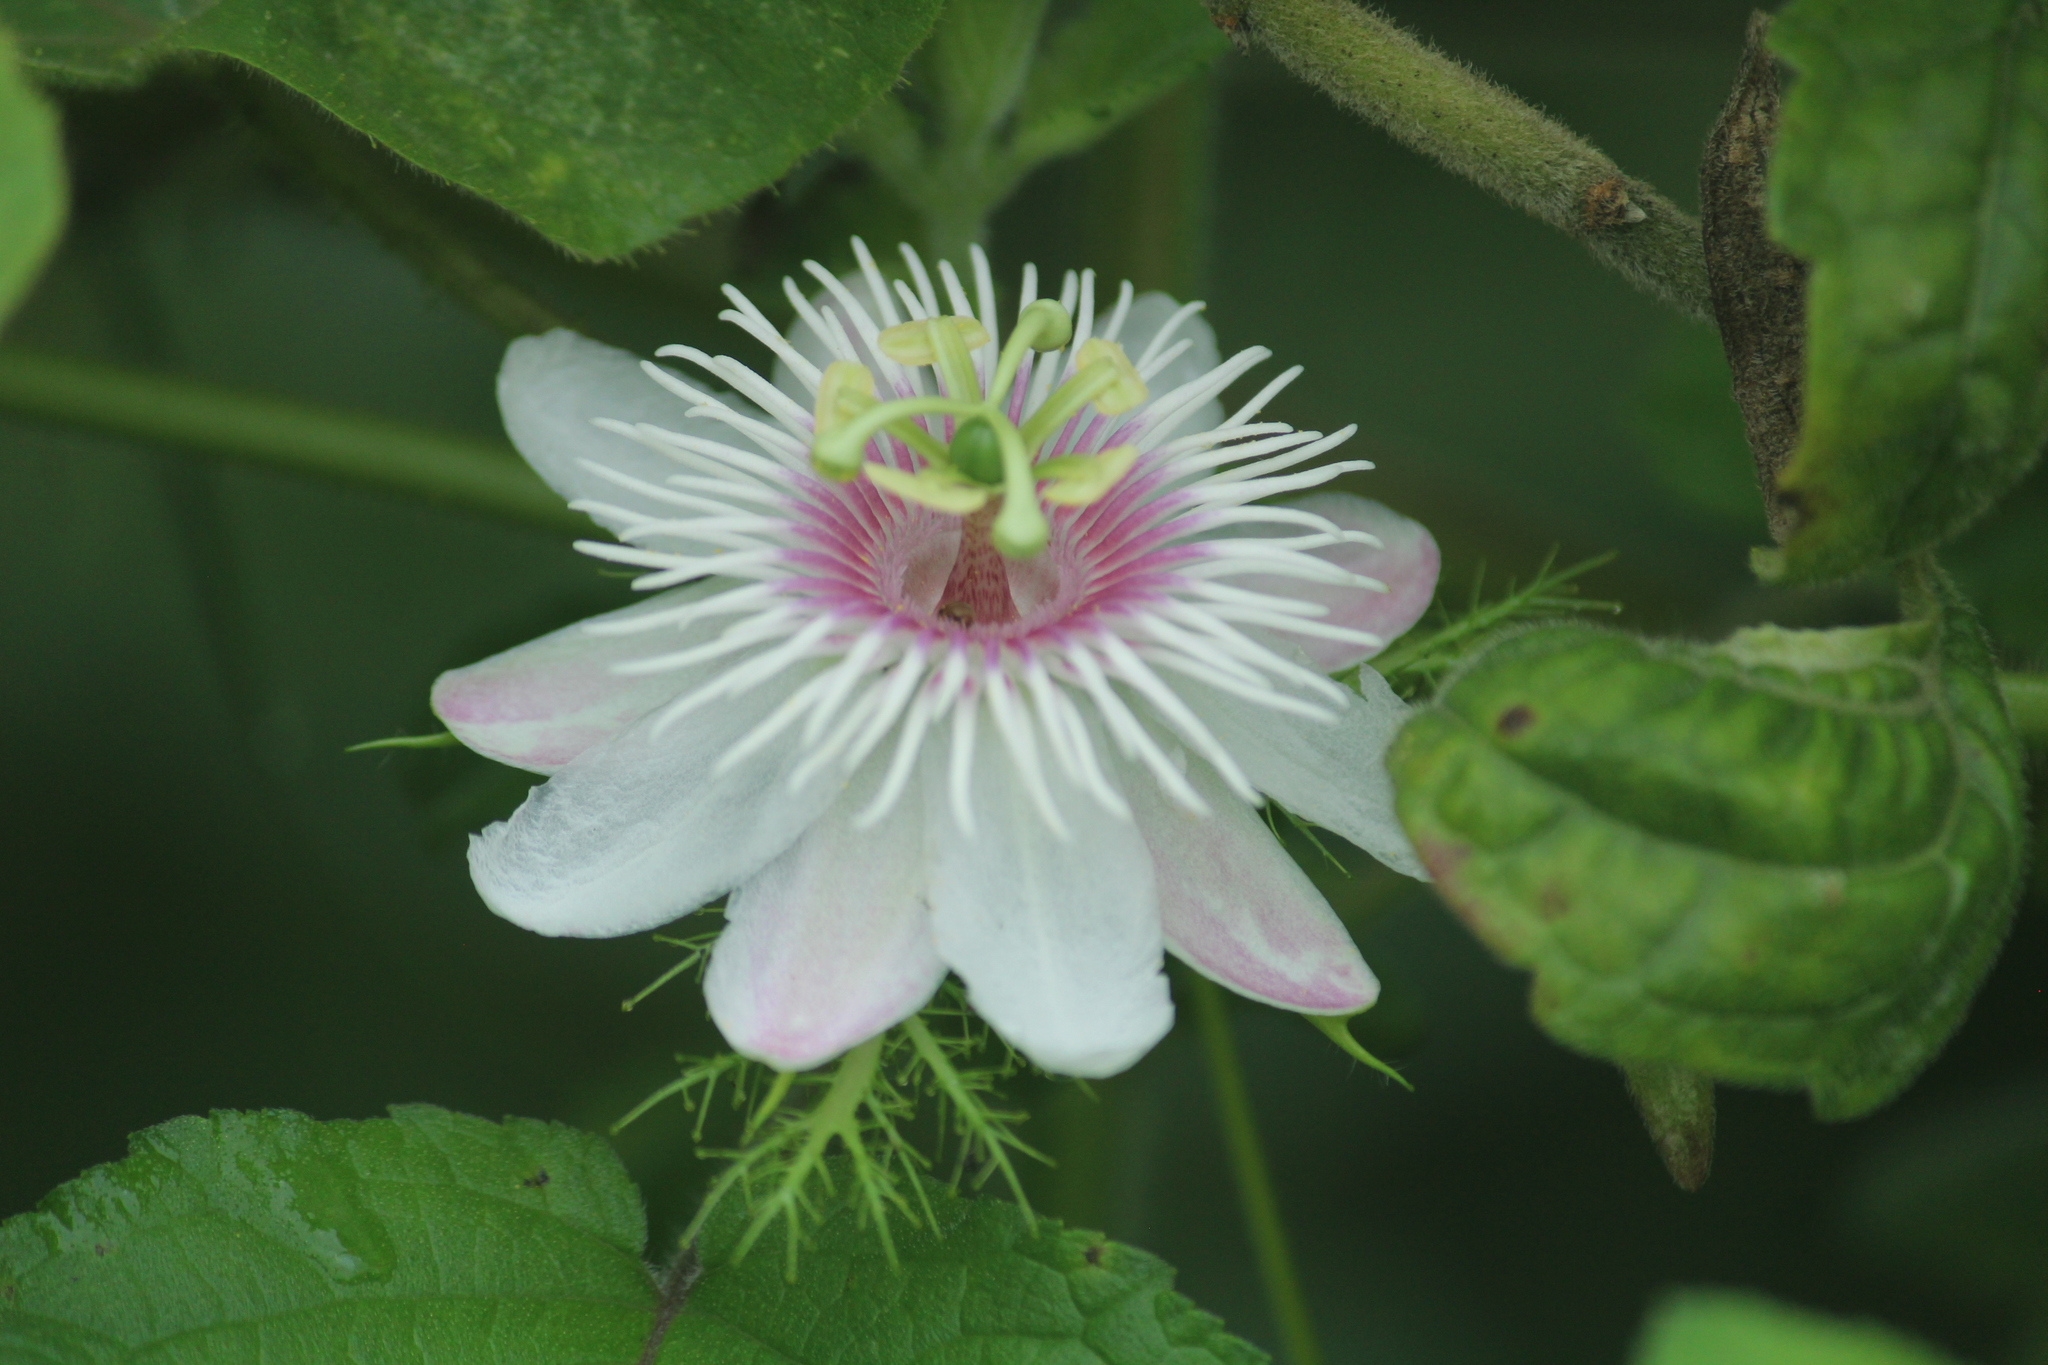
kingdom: Plantae
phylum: Tracheophyta
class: Magnoliopsida
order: Malpighiales
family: Passifloraceae
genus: Passiflora
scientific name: Passiflora foetida
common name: Fetid passionflower
